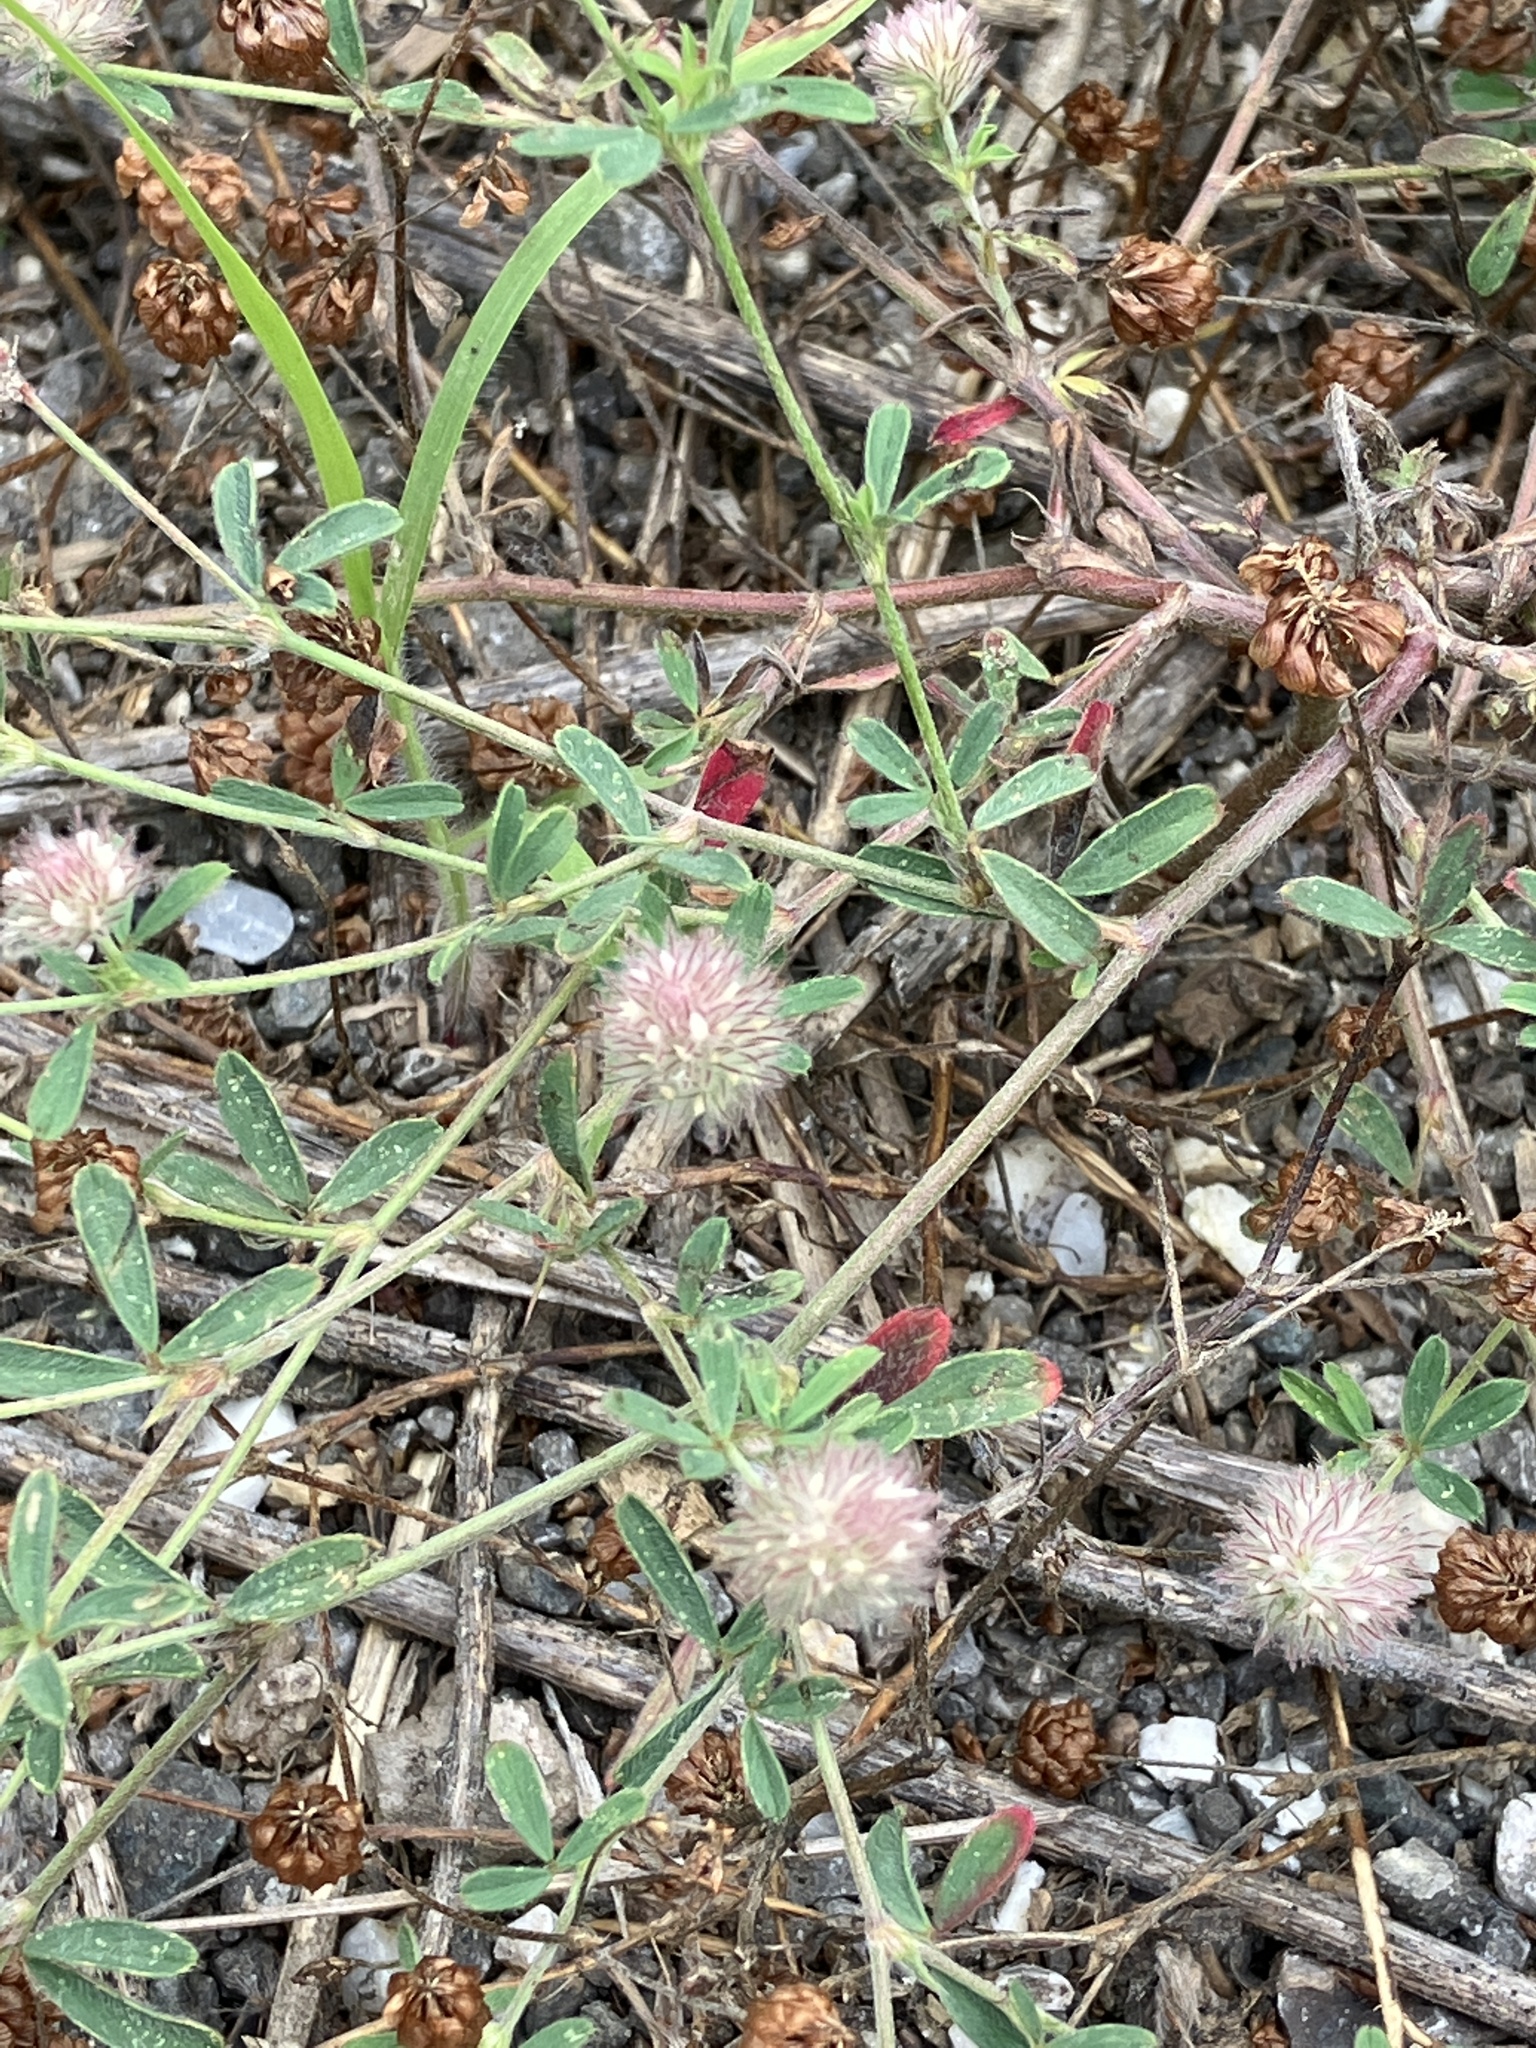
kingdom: Plantae
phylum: Tracheophyta
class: Magnoliopsida
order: Fabales
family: Fabaceae
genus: Trifolium
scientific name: Trifolium arvense
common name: Hare's-foot clover
